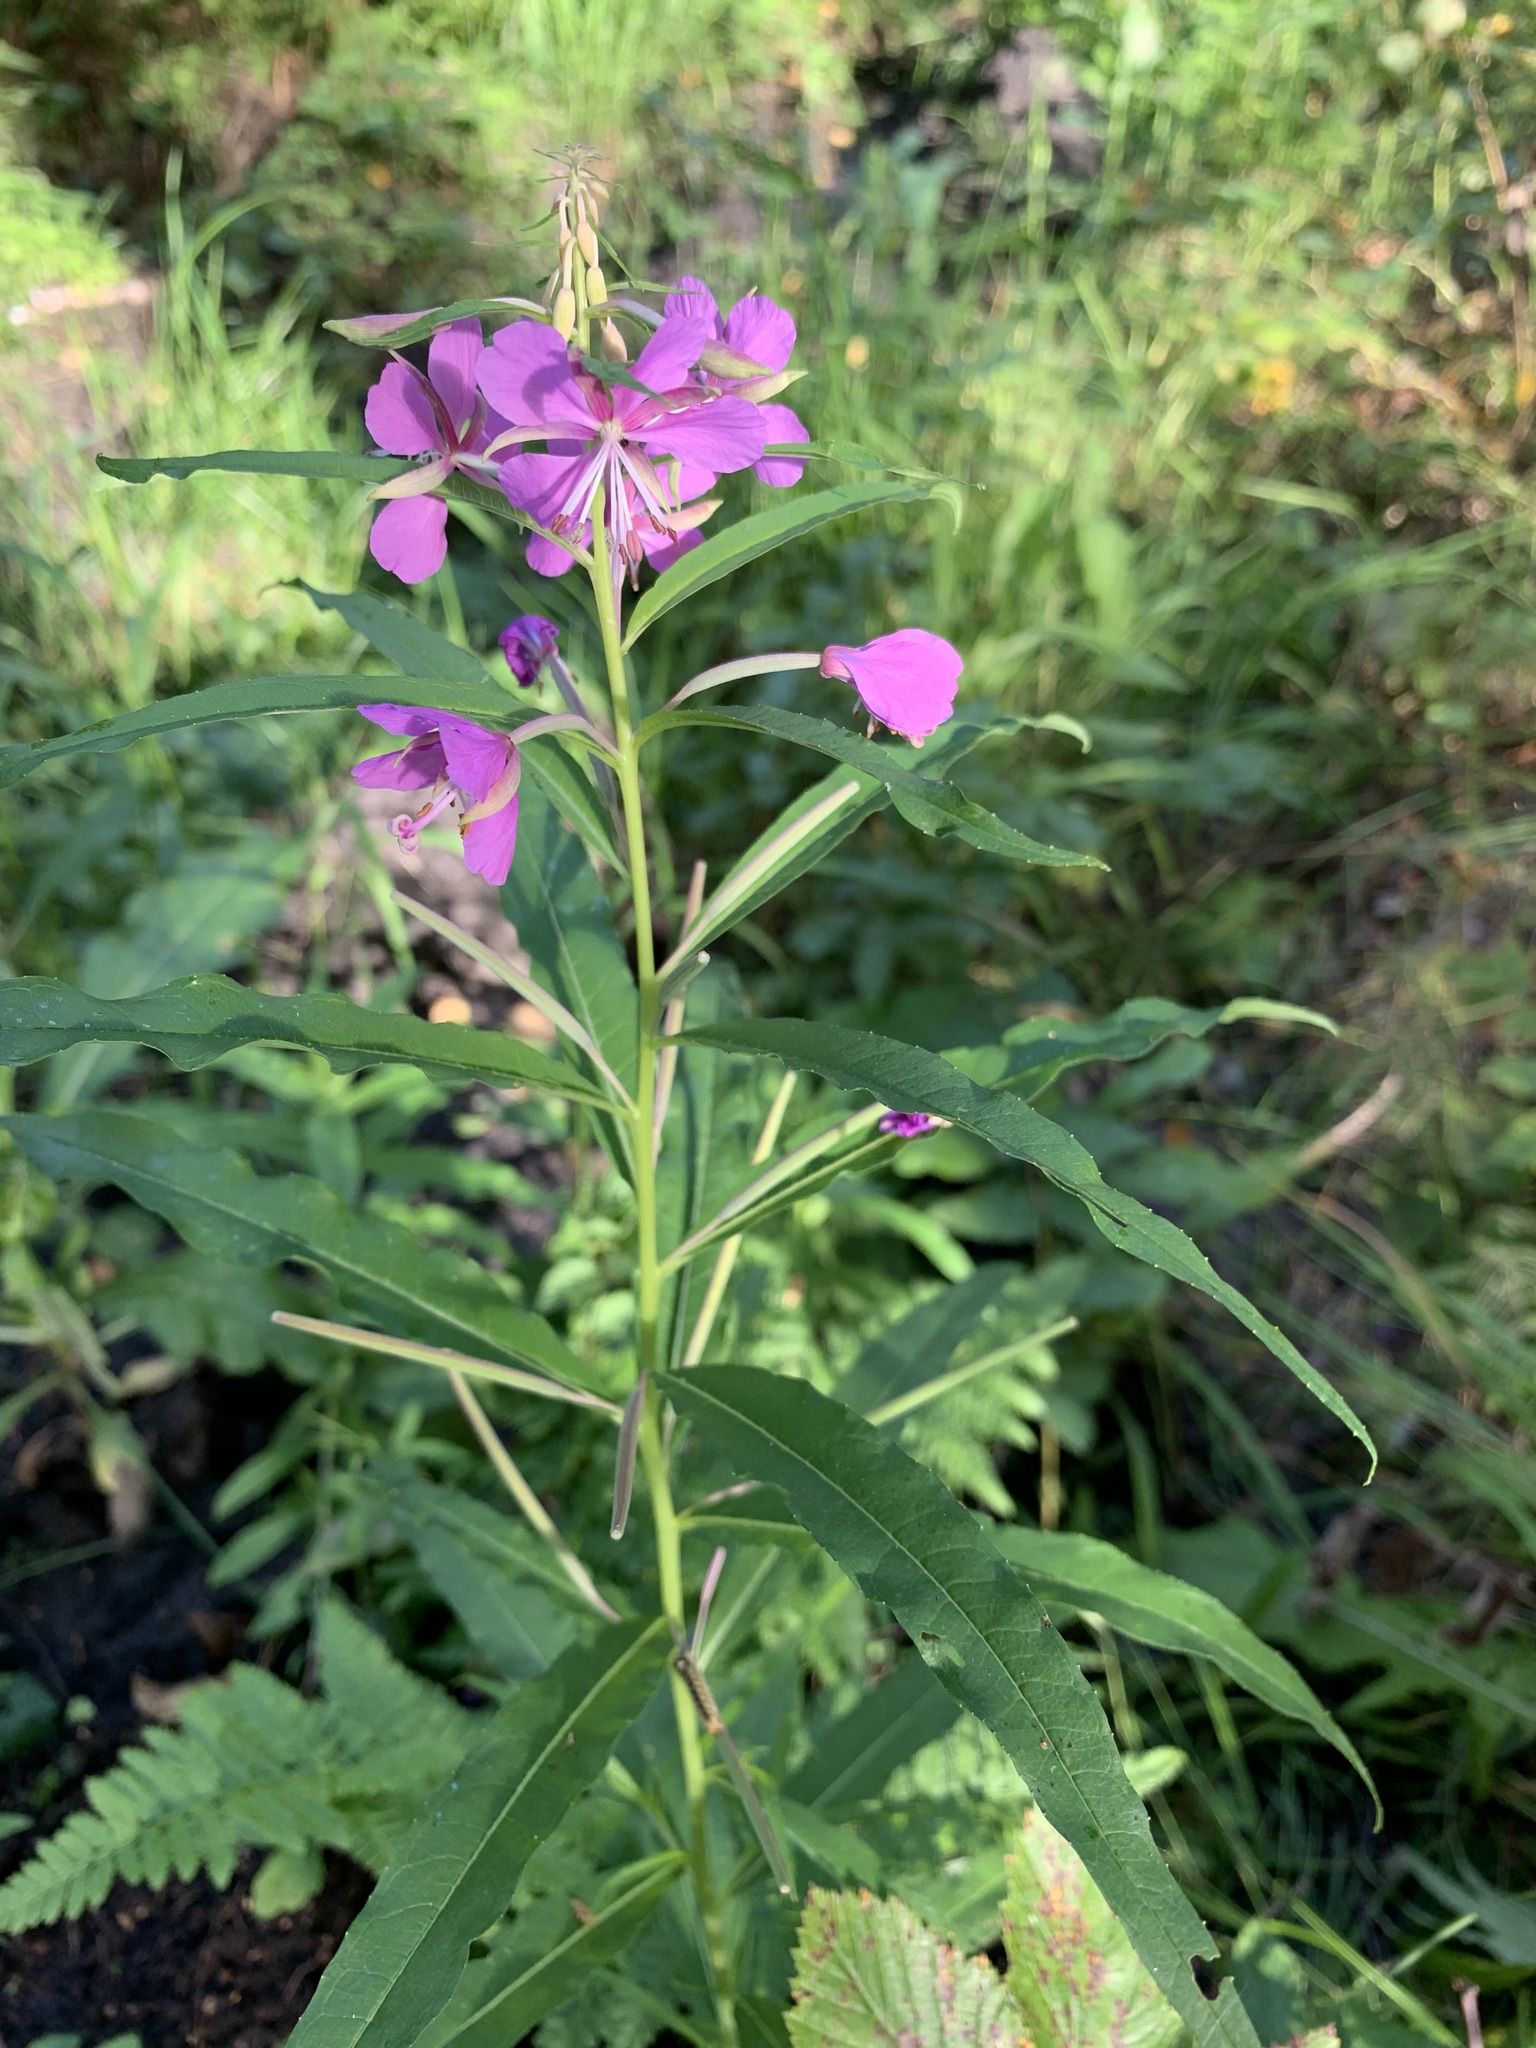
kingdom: Plantae
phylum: Tracheophyta
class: Magnoliopsida
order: Myrtales
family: Onagraceae
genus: Chamaenerion
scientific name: Chamaenerion angustifolium
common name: Fireweed
